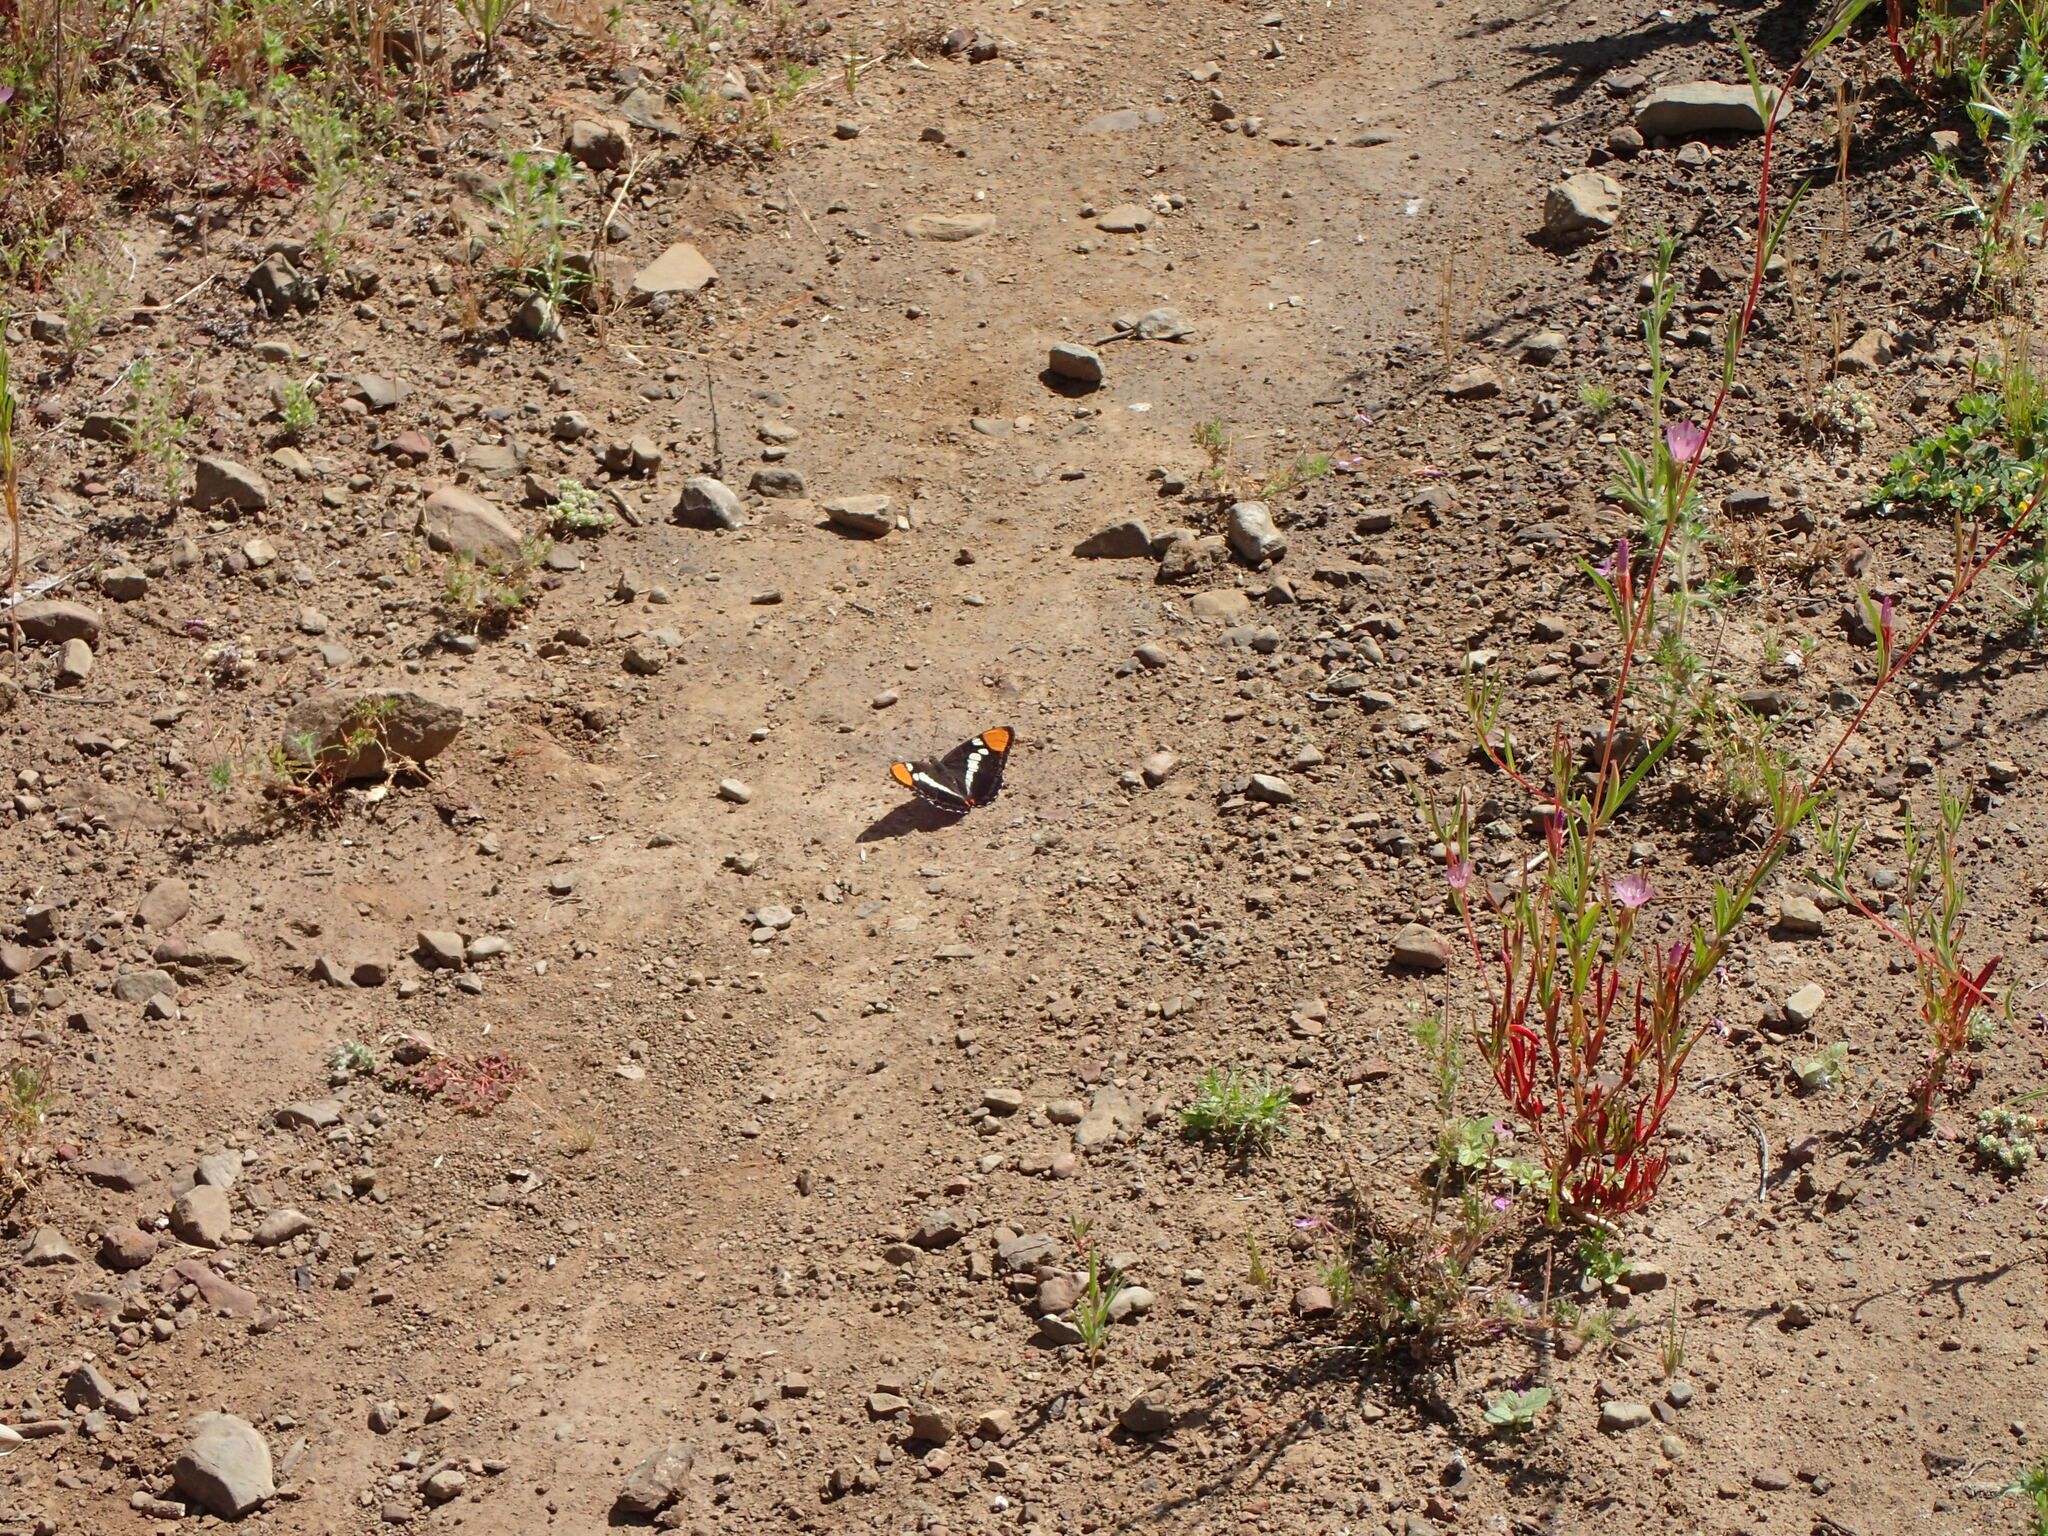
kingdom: Animalia
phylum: Arthropoda
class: Insecta
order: Lepidoptera
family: Nymphalidae
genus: Limenitis
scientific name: Limenitis bredowii
